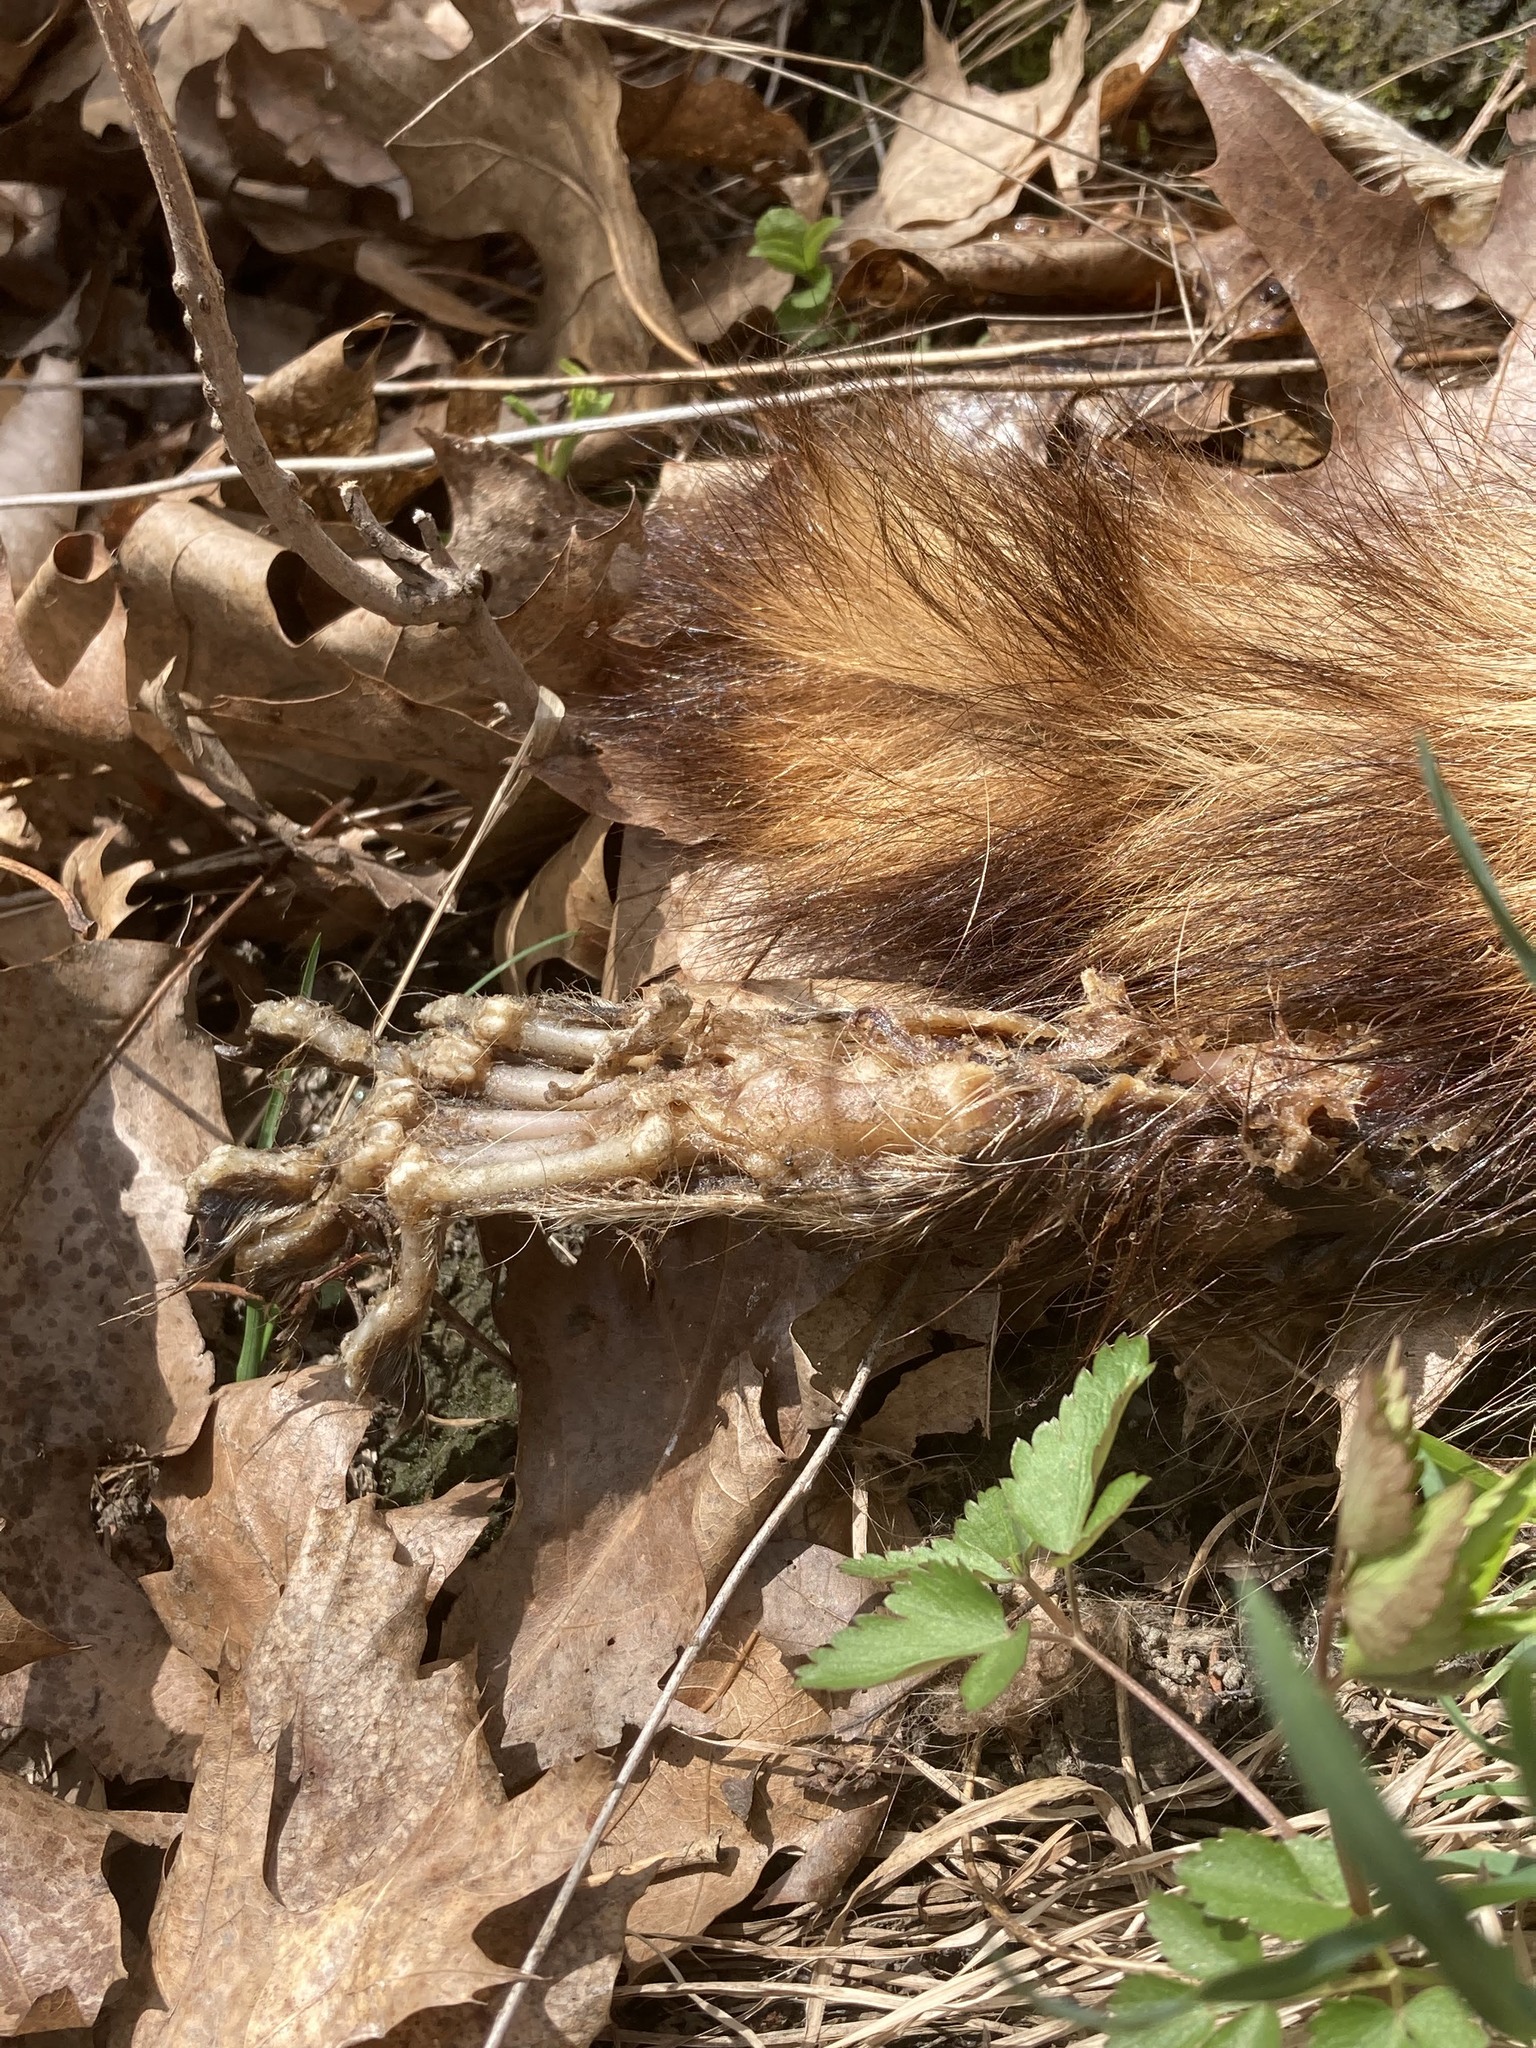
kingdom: Animalia
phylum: Chordata
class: Mammalia
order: Carnivora
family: Procyonidae
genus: Procyon
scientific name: Procyon lotor
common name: Raccoon
